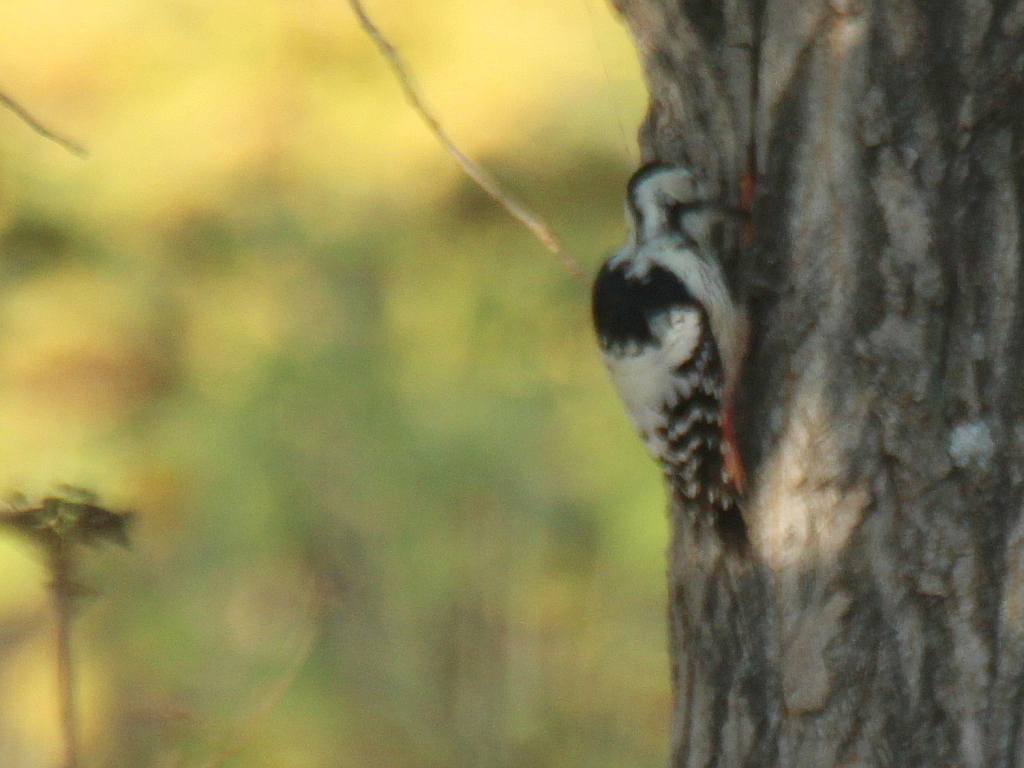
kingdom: Animalia
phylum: Chordata
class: Aves
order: Piciformes
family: Picidae
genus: Dendrocopos
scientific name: Dendrocopos leucotos
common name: White-backed woodpecker
